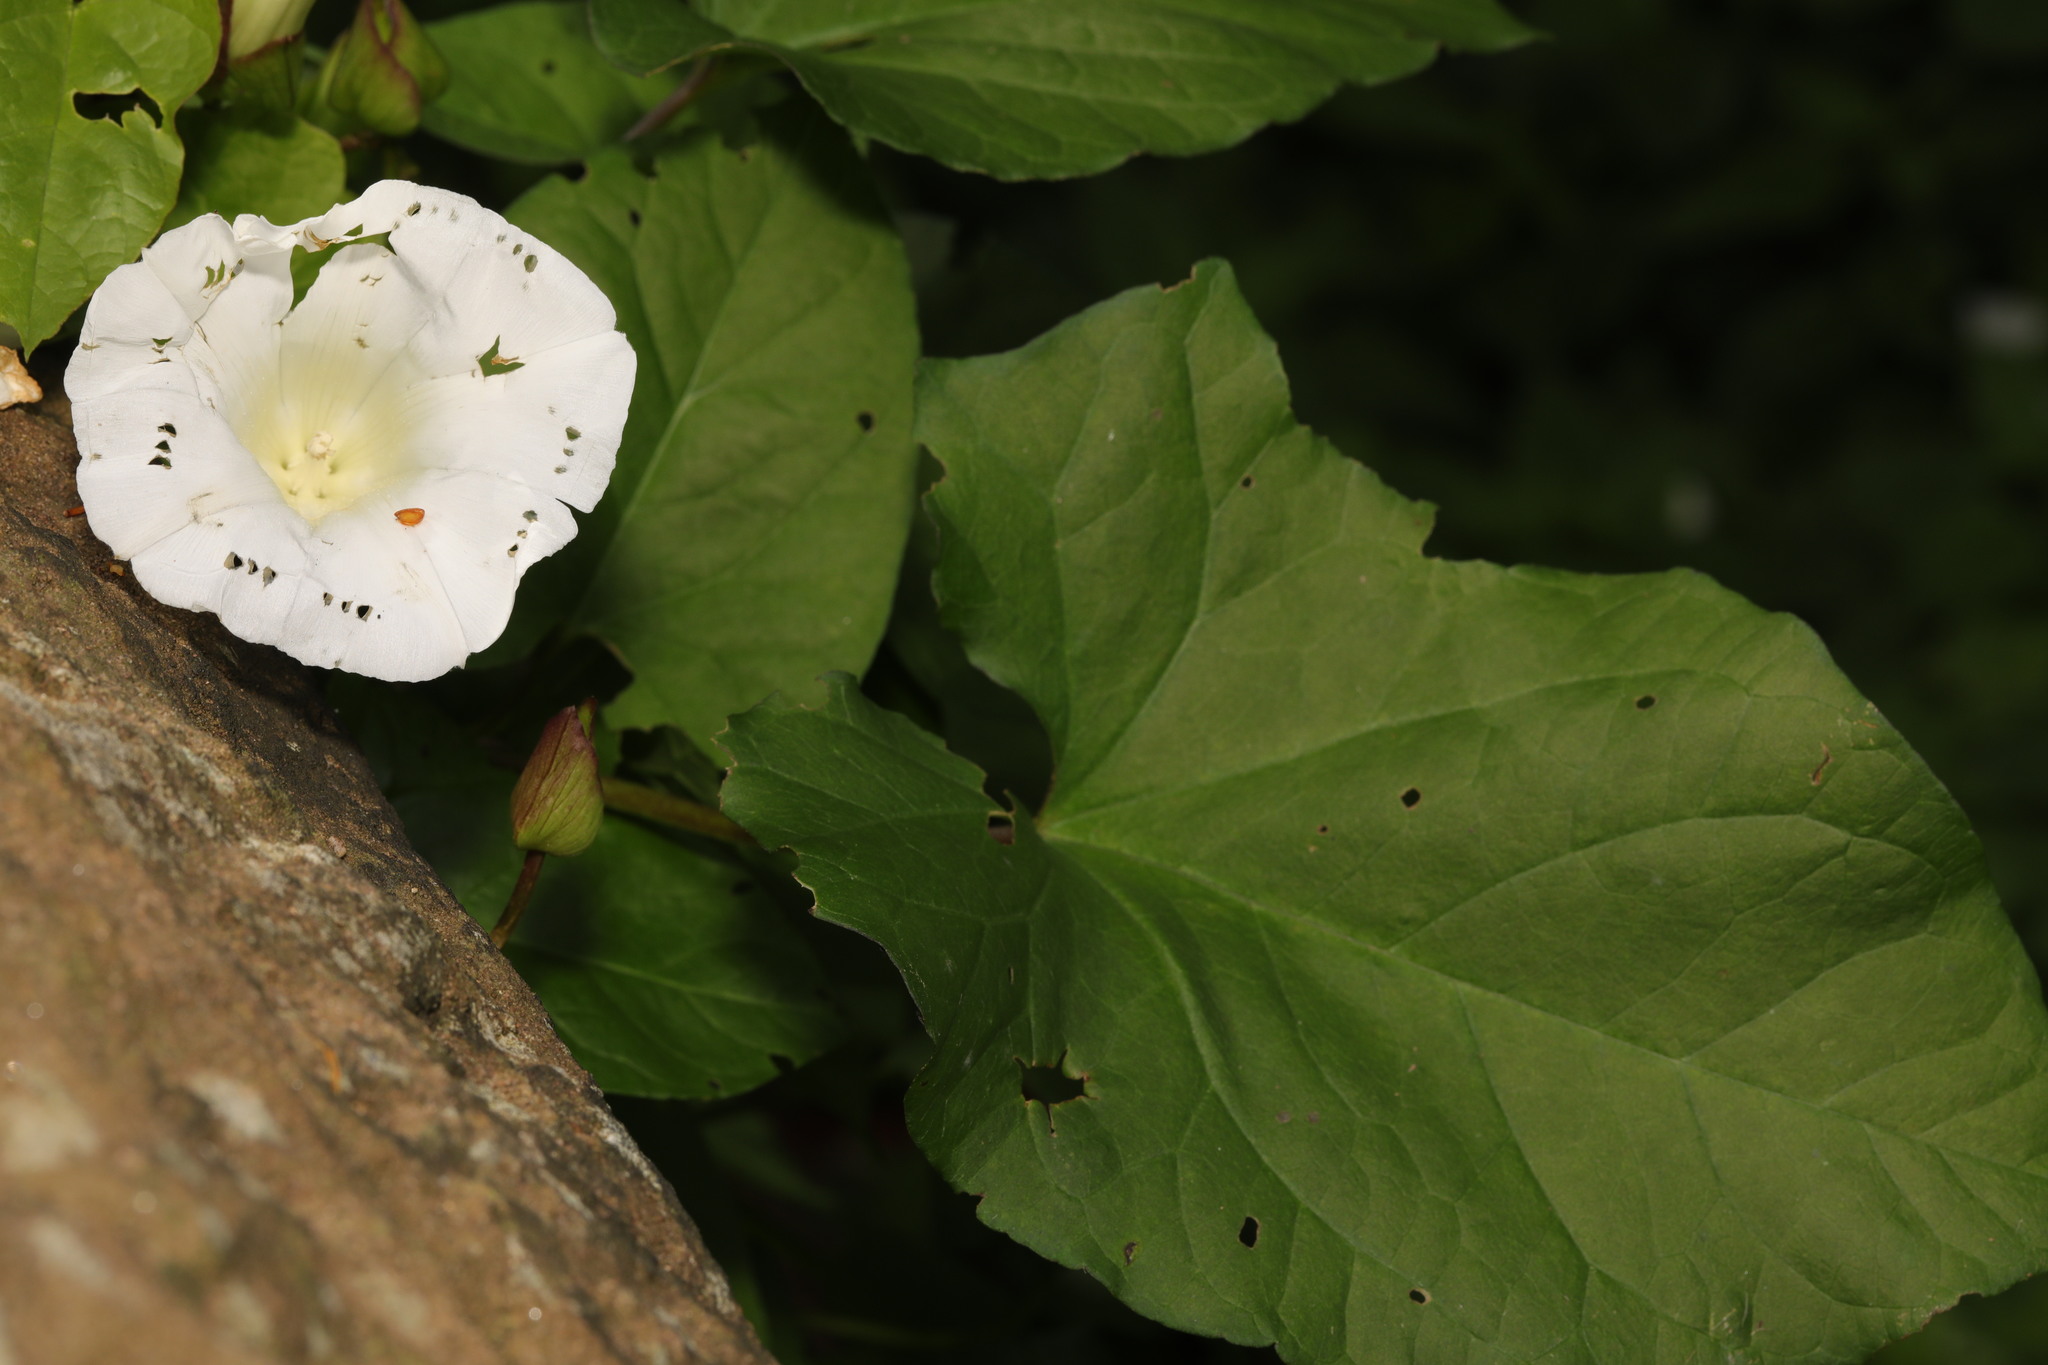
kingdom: Plantae
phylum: Tracheophyta
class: Magnoliopsida
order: Solanales
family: Convolvulaceae
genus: Calystegia
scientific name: Calystegia silvatica
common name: Large bindweed
